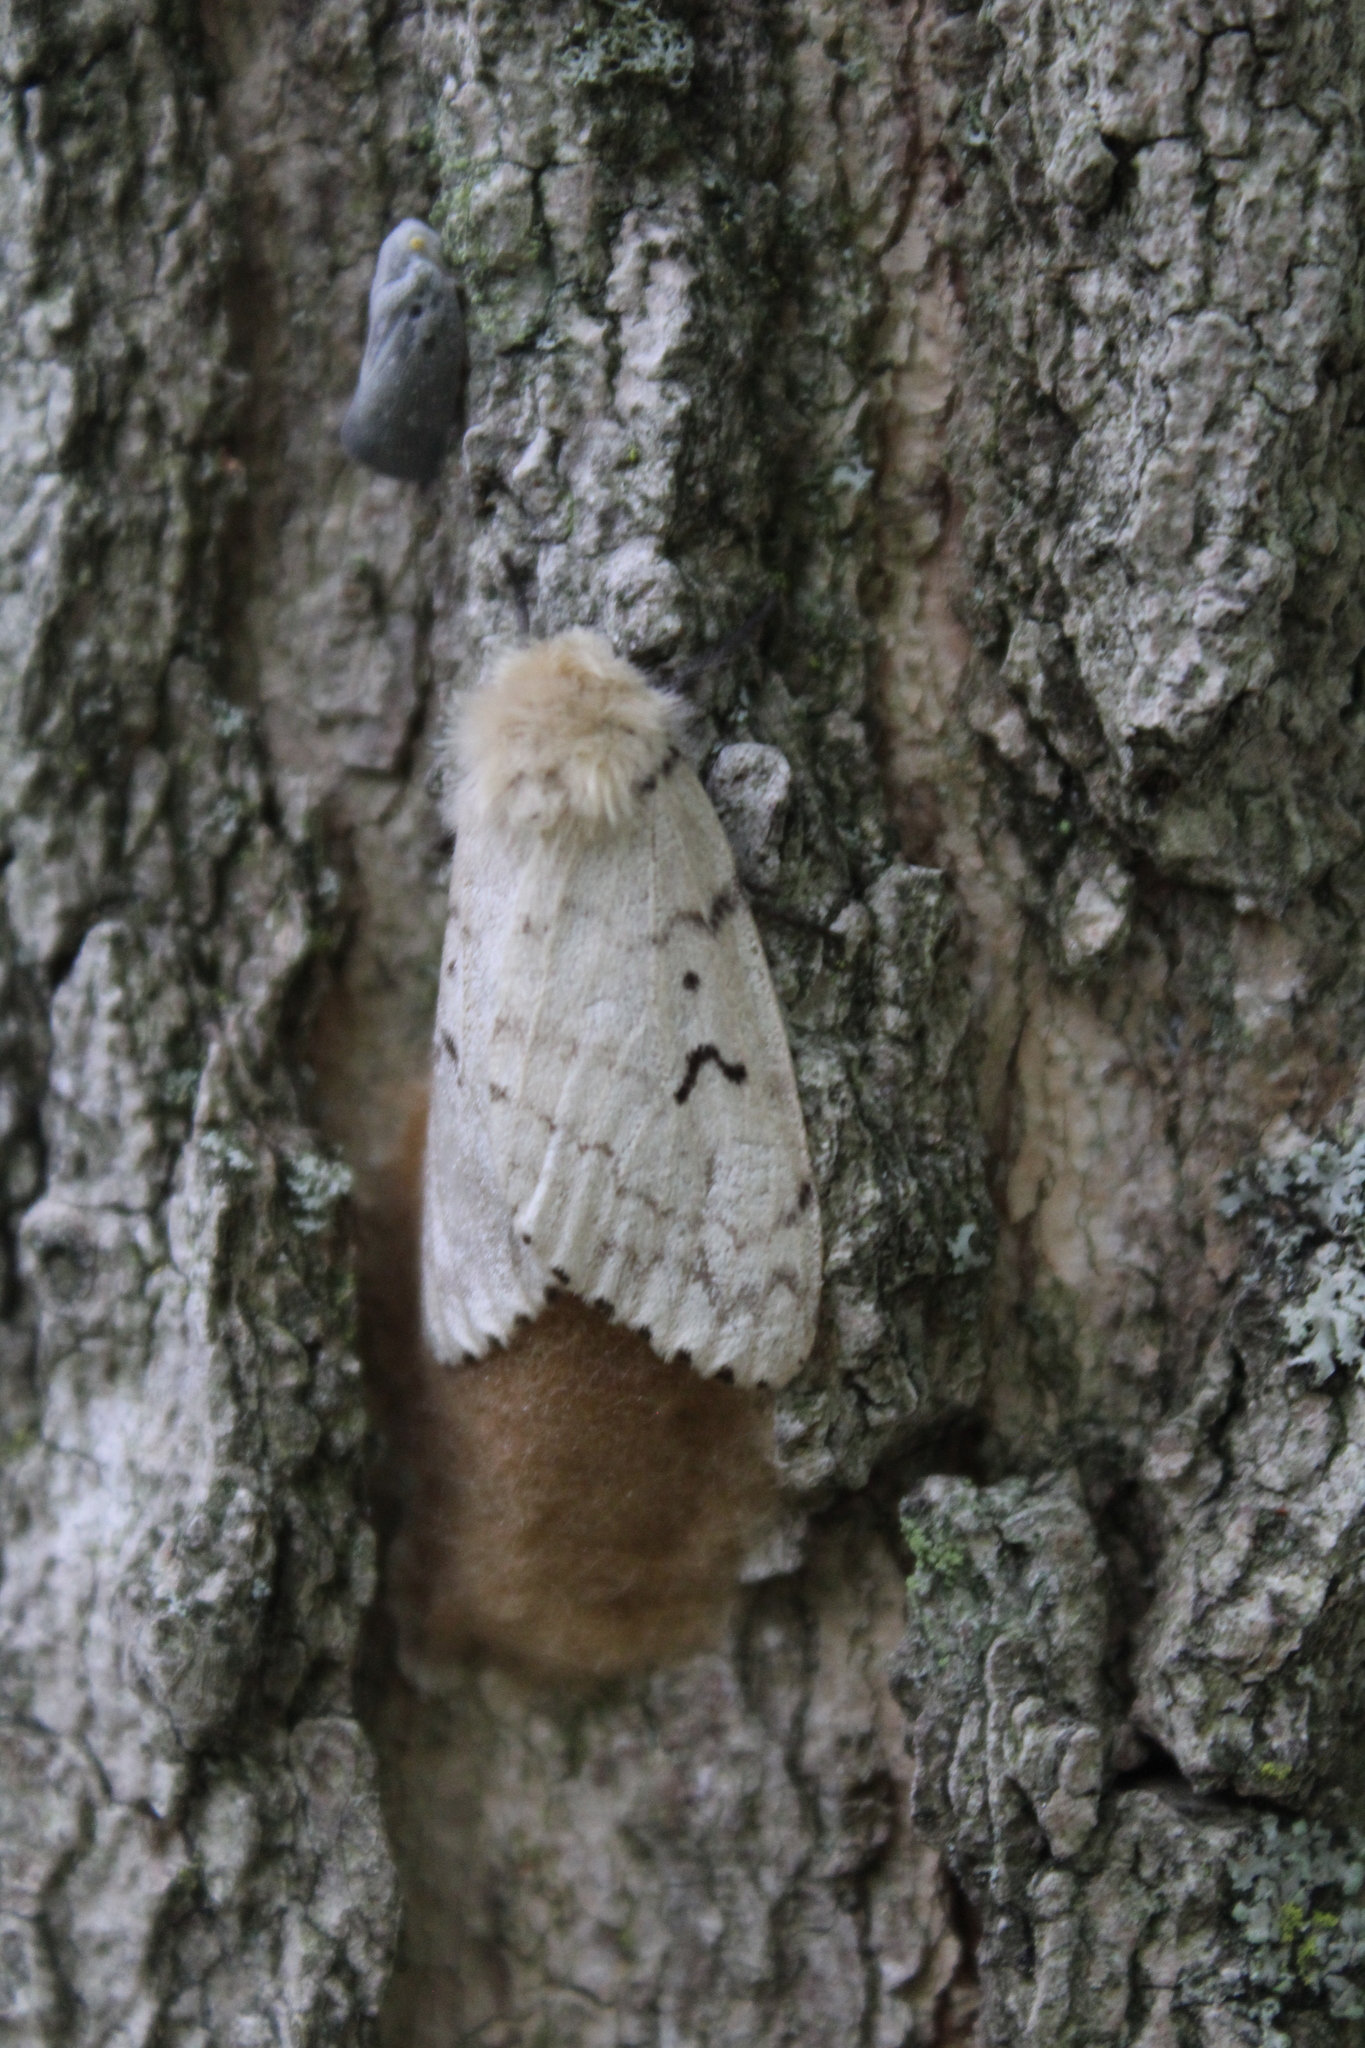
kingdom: Animalia
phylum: Arthropoda
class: Insecta
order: Lepidoptera
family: Erebidae
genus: Lymantria
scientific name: Lymantria dispar
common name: Gypsy moth
